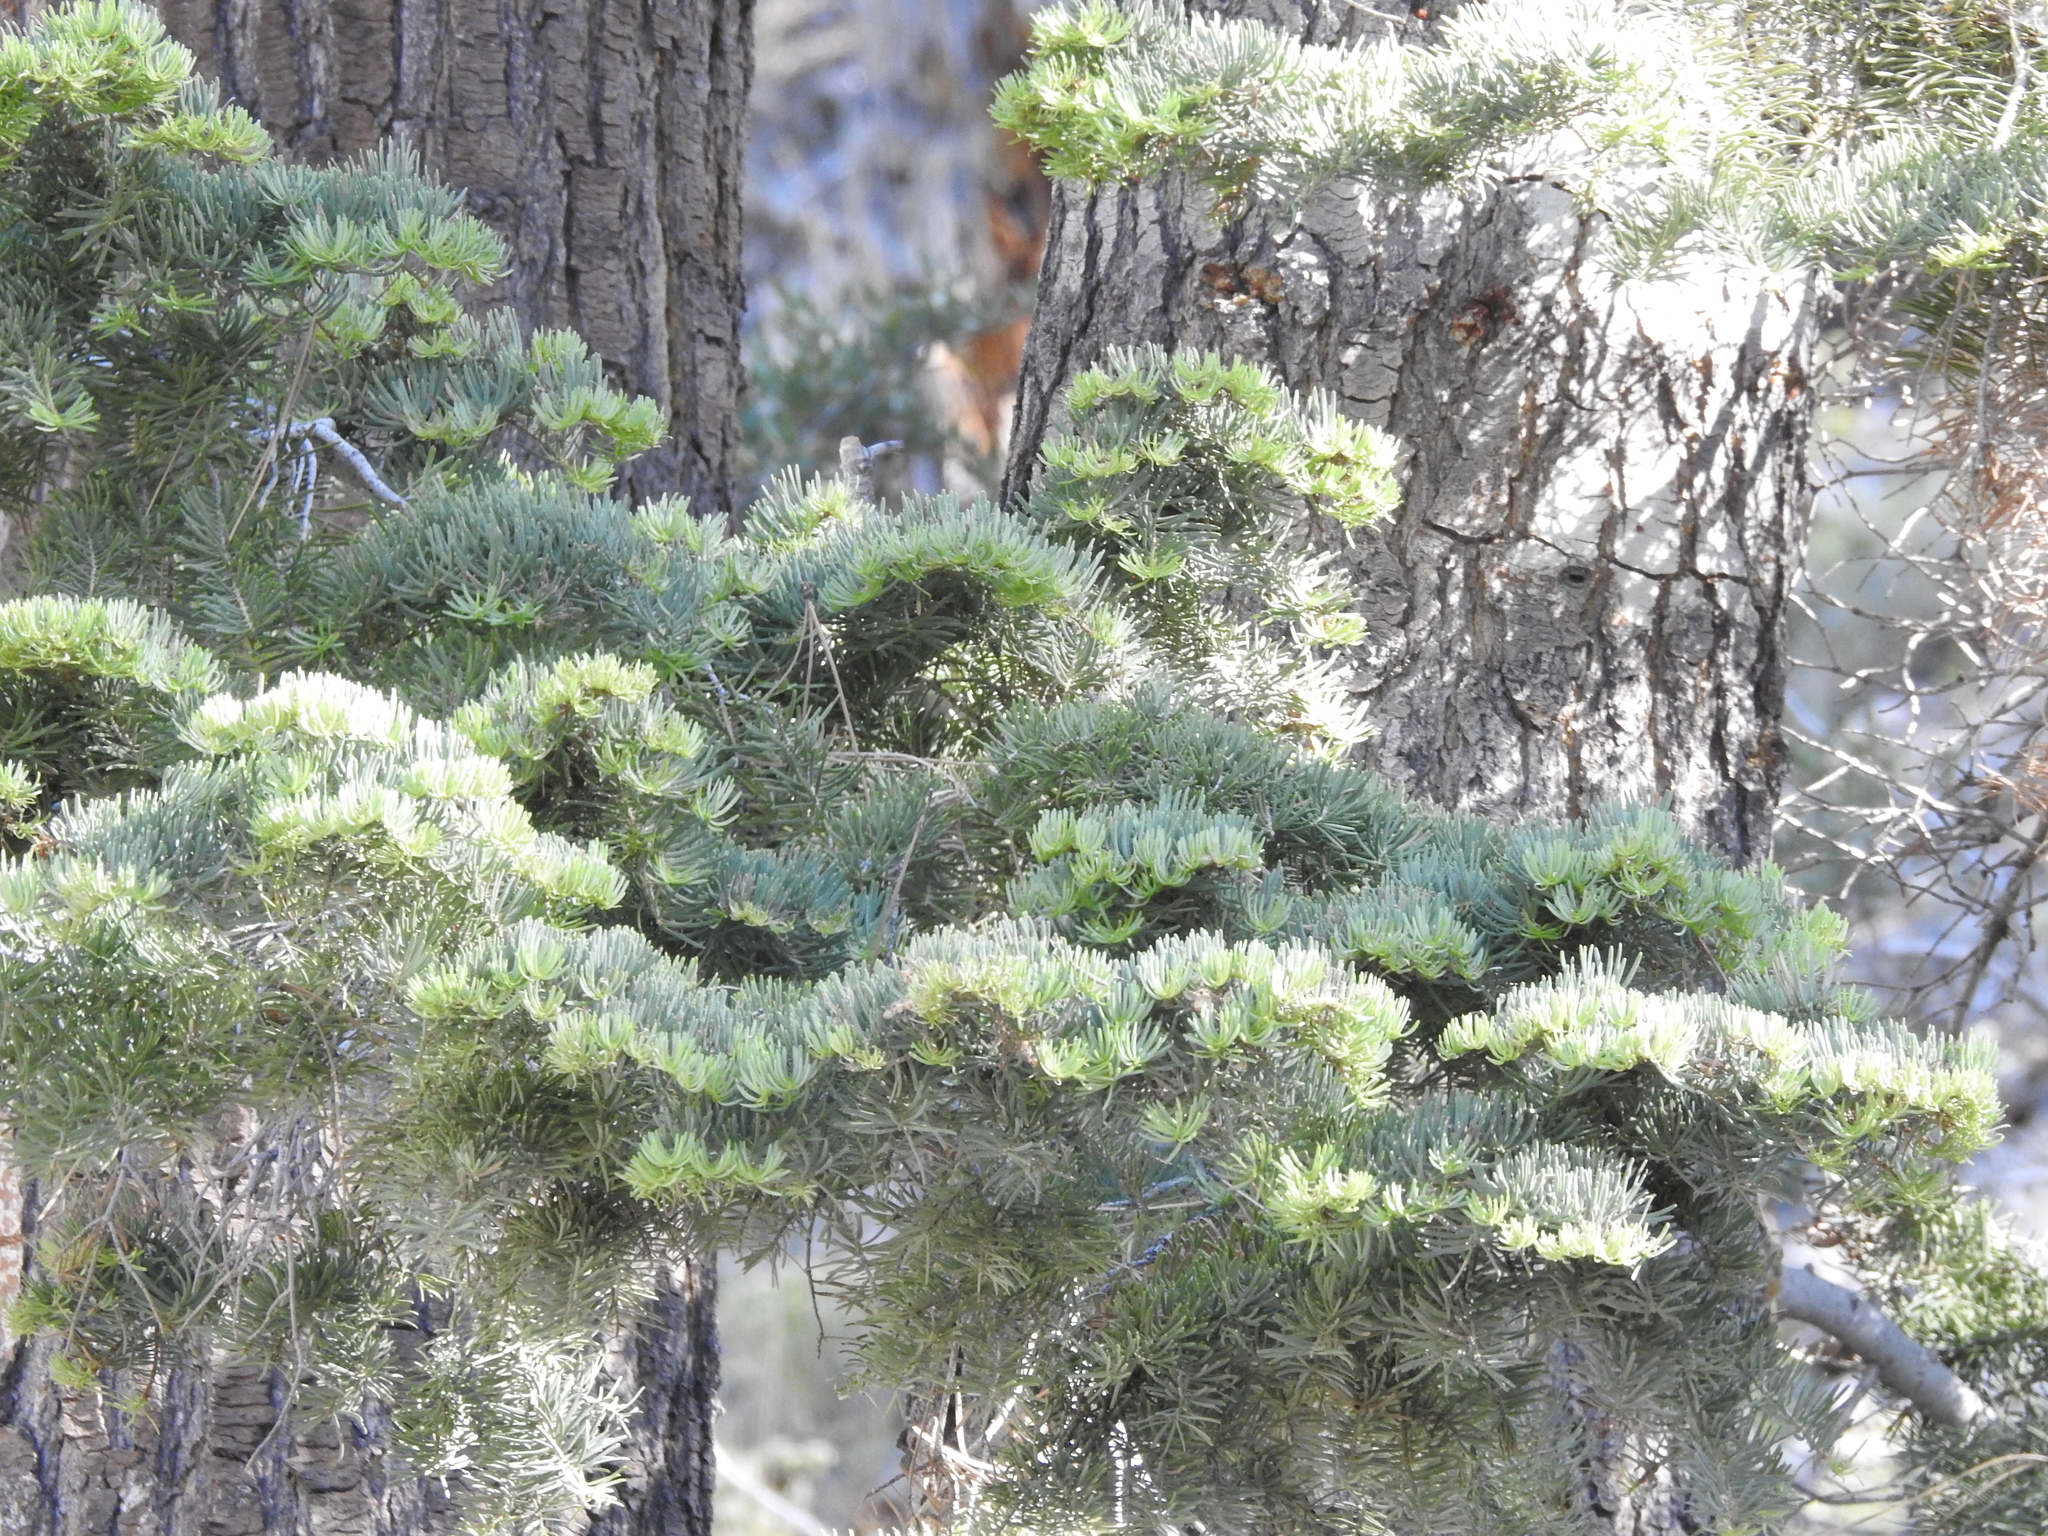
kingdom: Plantae
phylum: Tracheophyta
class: Pinopsida
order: Pinales
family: Pinaceae
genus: Abies
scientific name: Abies concolor
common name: Colorado fir
